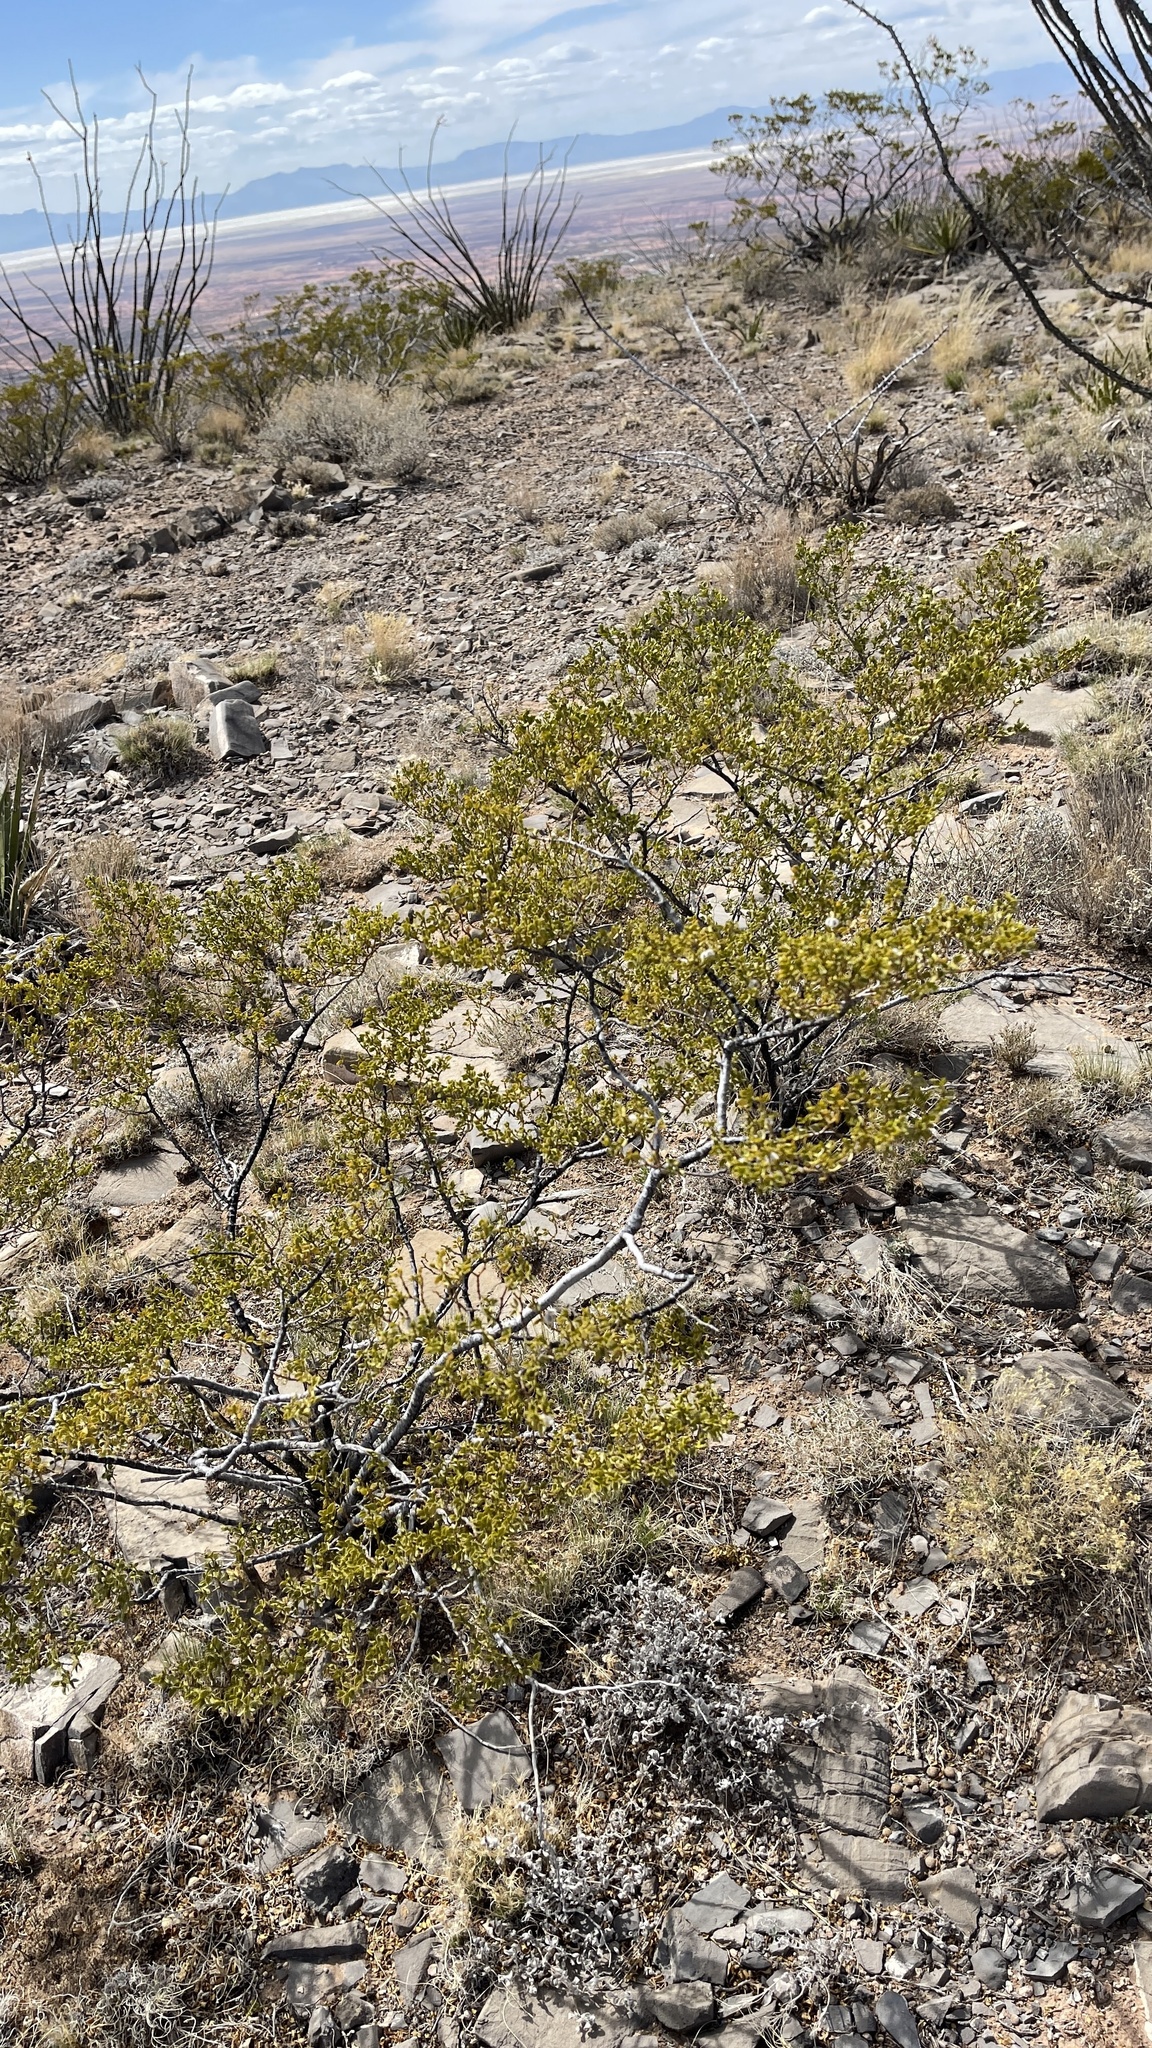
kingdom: Plantae
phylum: Tracheophyta
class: Magnoliopsida
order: Zygophyllales
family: Zygophyllaceae
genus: Larrea
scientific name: Larrea tridentata
